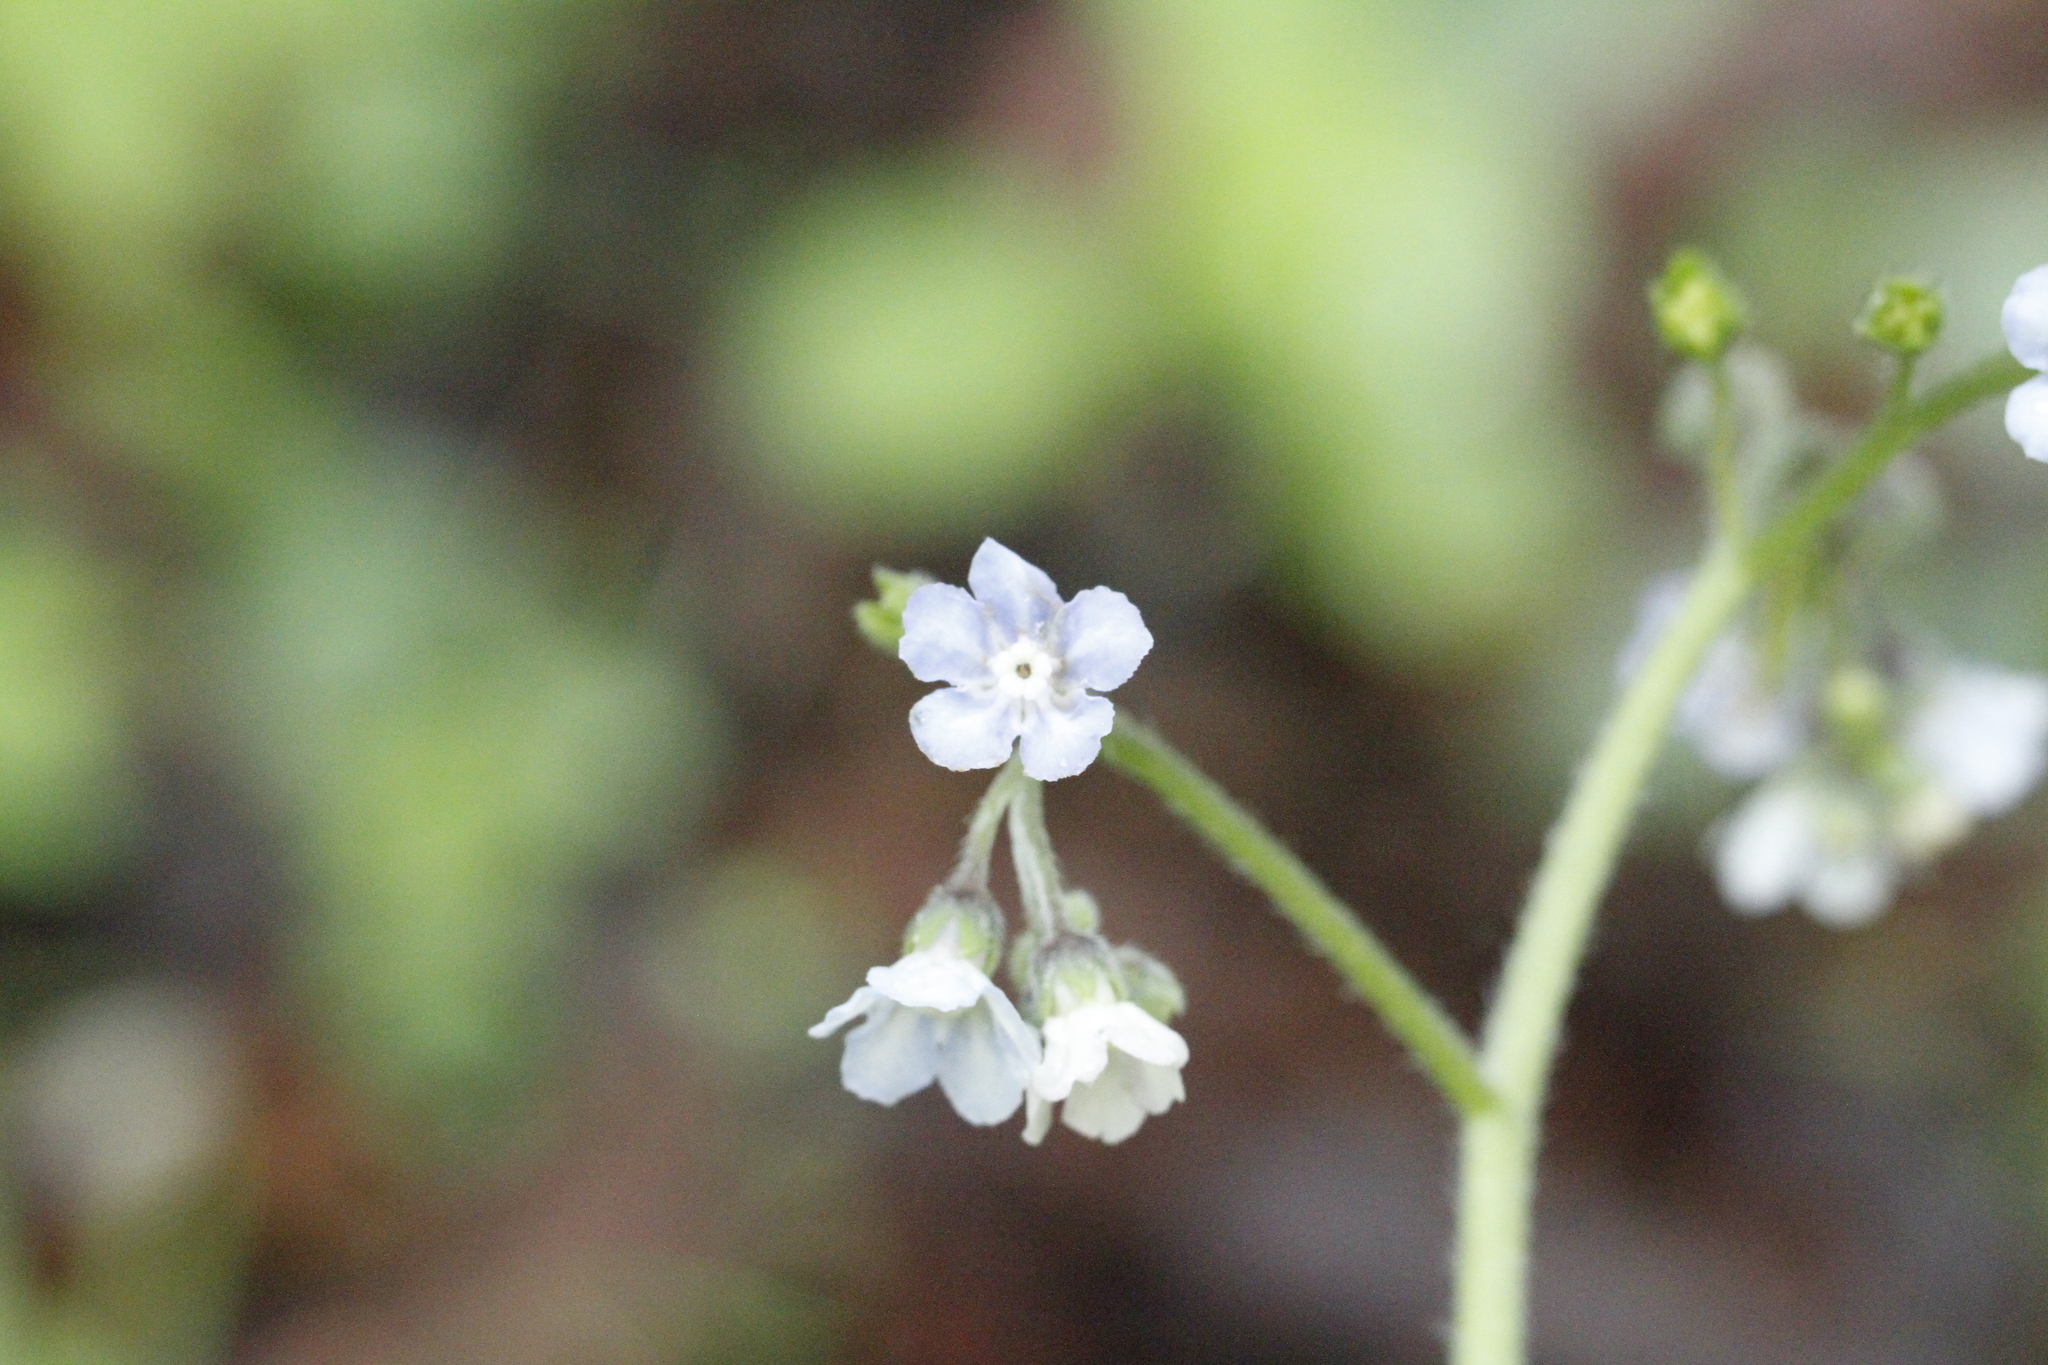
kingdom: Plantae
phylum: Tracheophyta
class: Magnoliopsida
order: Boraginales
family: Boraginaceae
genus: Andersonglossum
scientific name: Andersonglossum virginianum
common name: Wild comfrey
